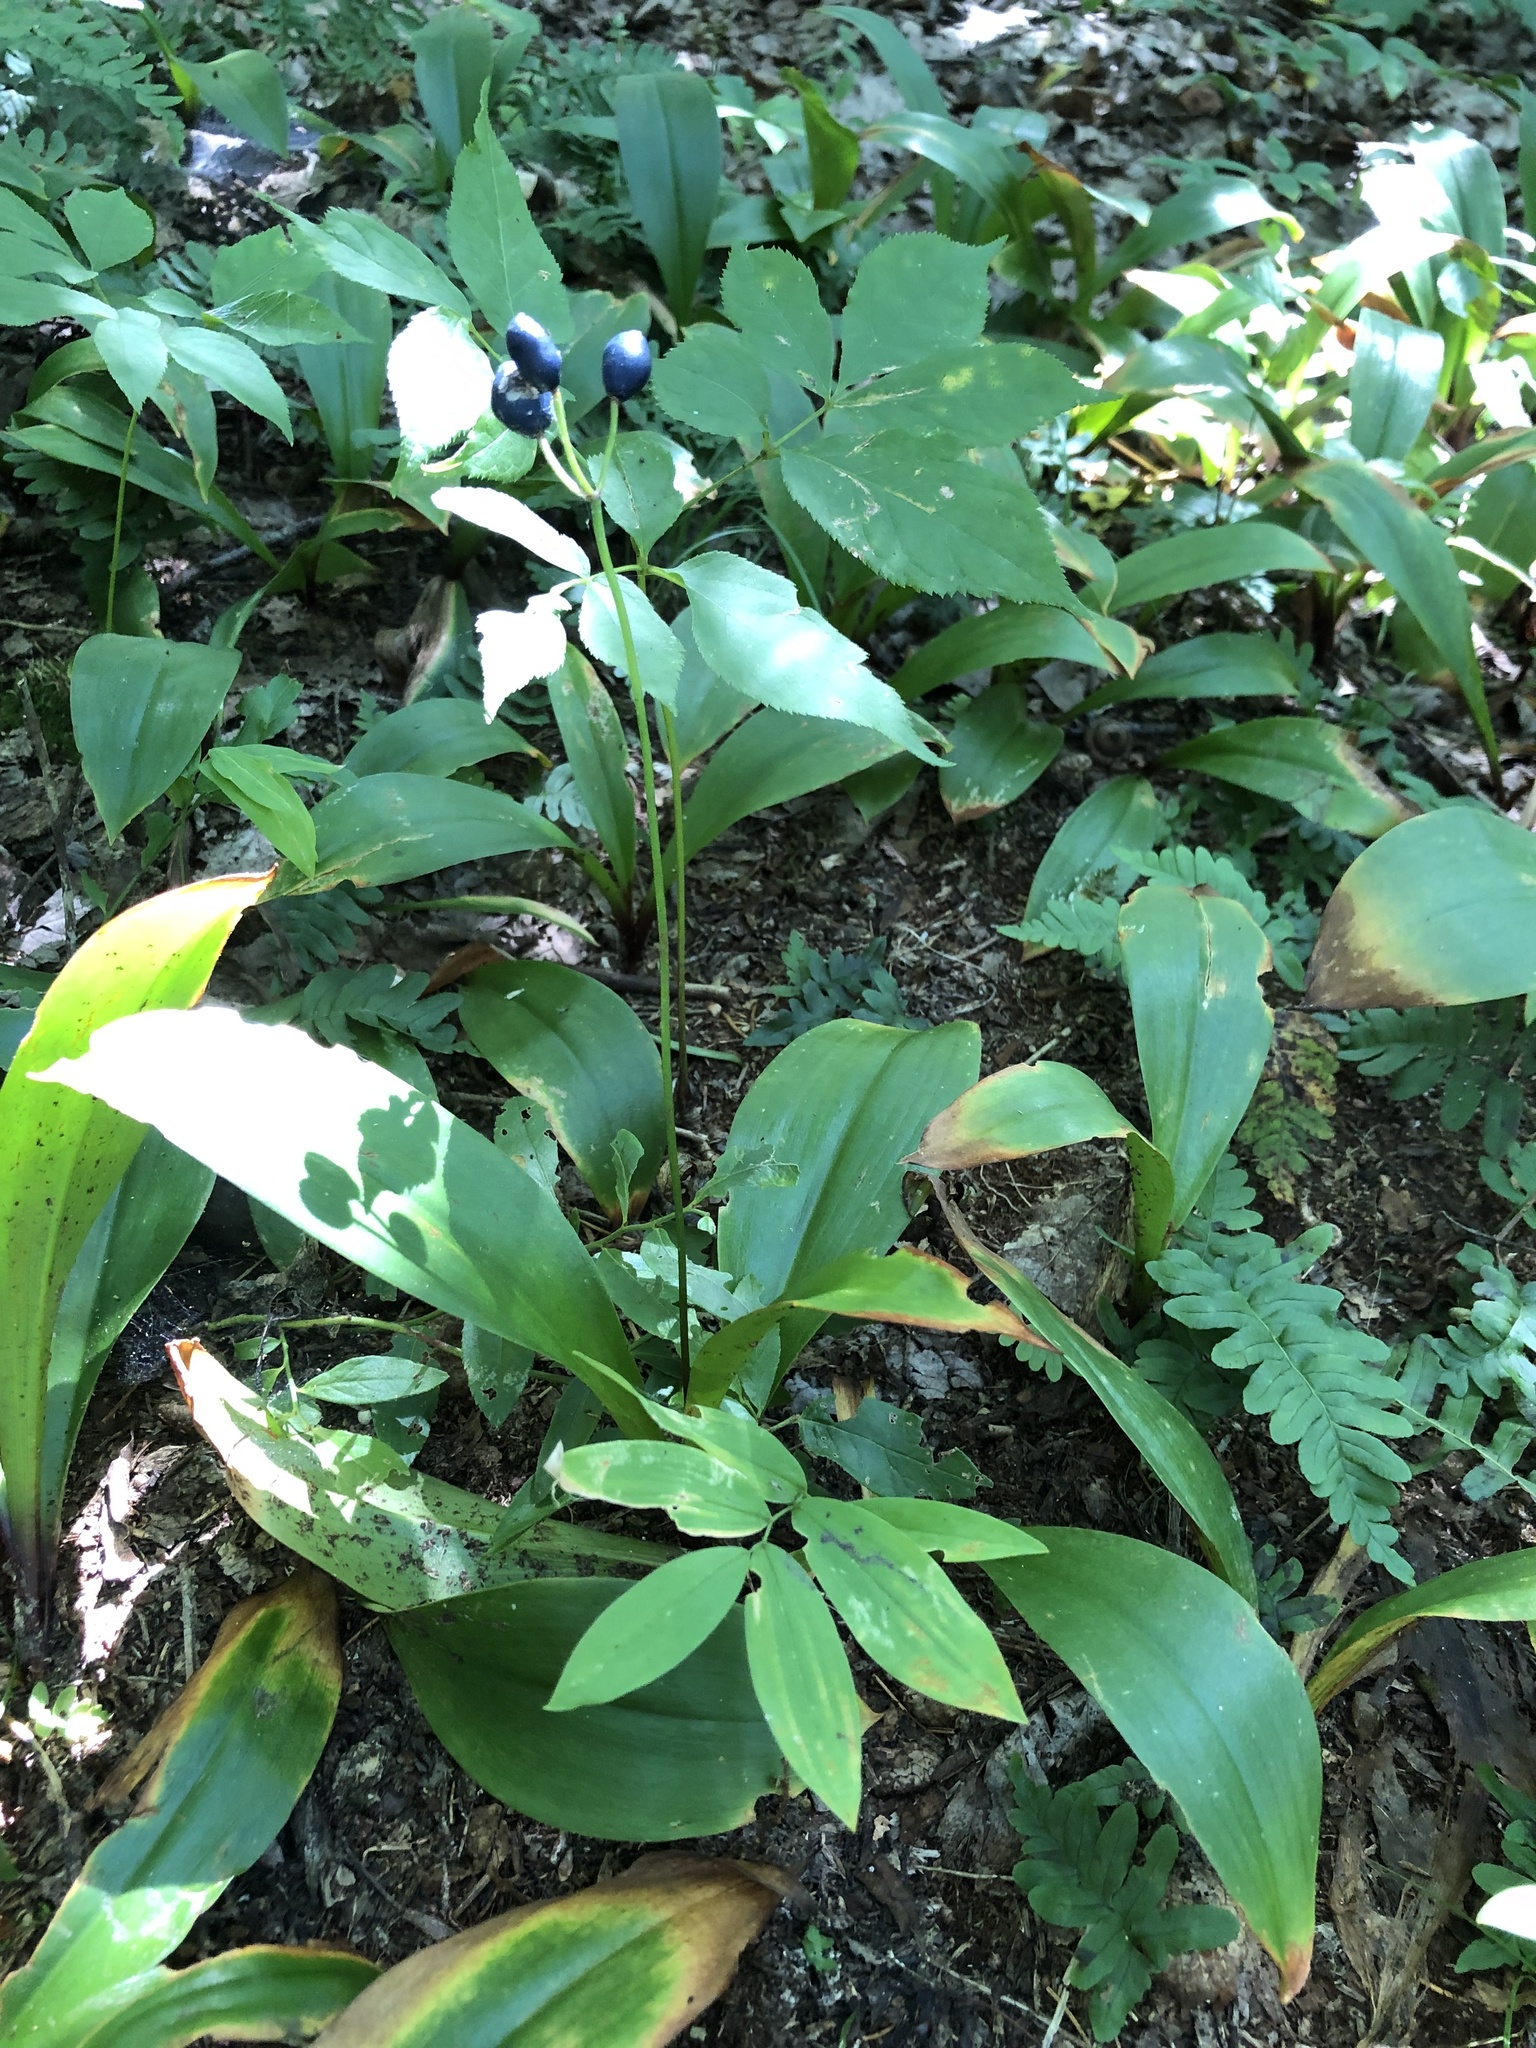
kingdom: Plantae
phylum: Tracheophyta
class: Liliopsida
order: Liliales
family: Liliaceae
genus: Clintonia
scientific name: Clintonia borealis
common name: Yellow clintonia
